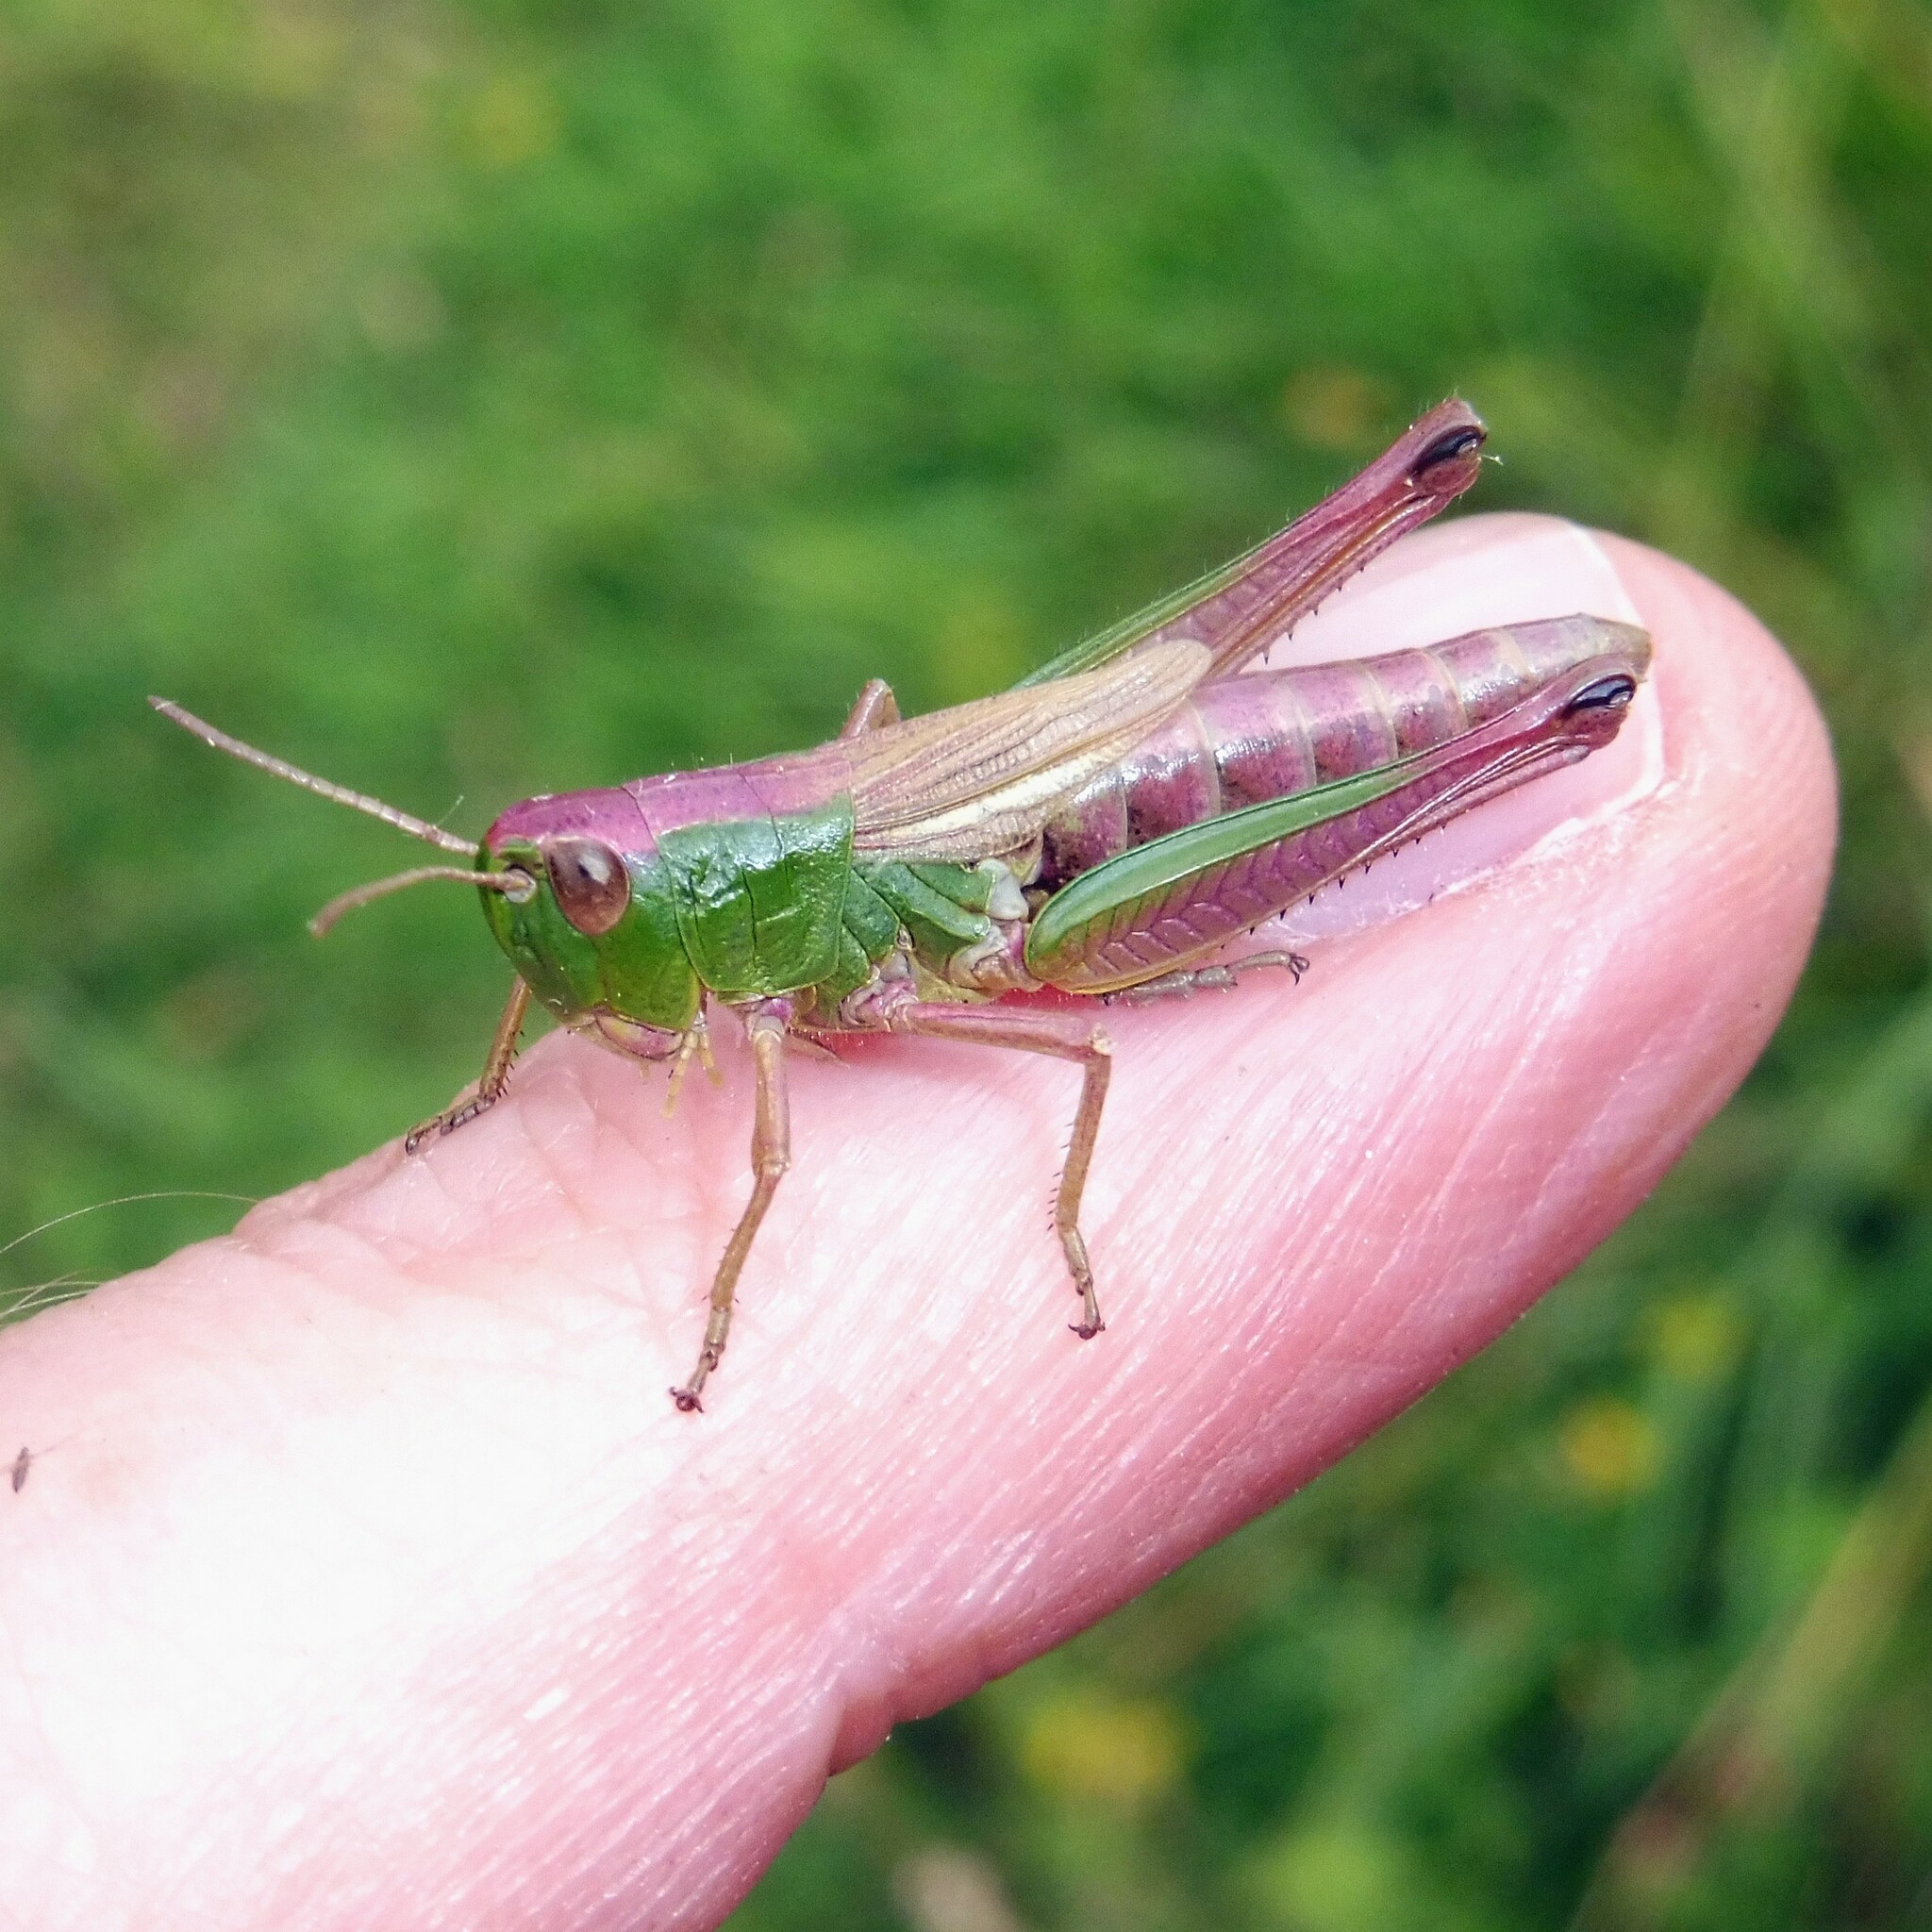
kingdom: Animalia
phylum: Arthropoda
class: Insecta
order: Orthoptera
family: Acrididae
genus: Pseudochorthippus
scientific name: Pseudochorthippus parallelus
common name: Meadow grasshopper
